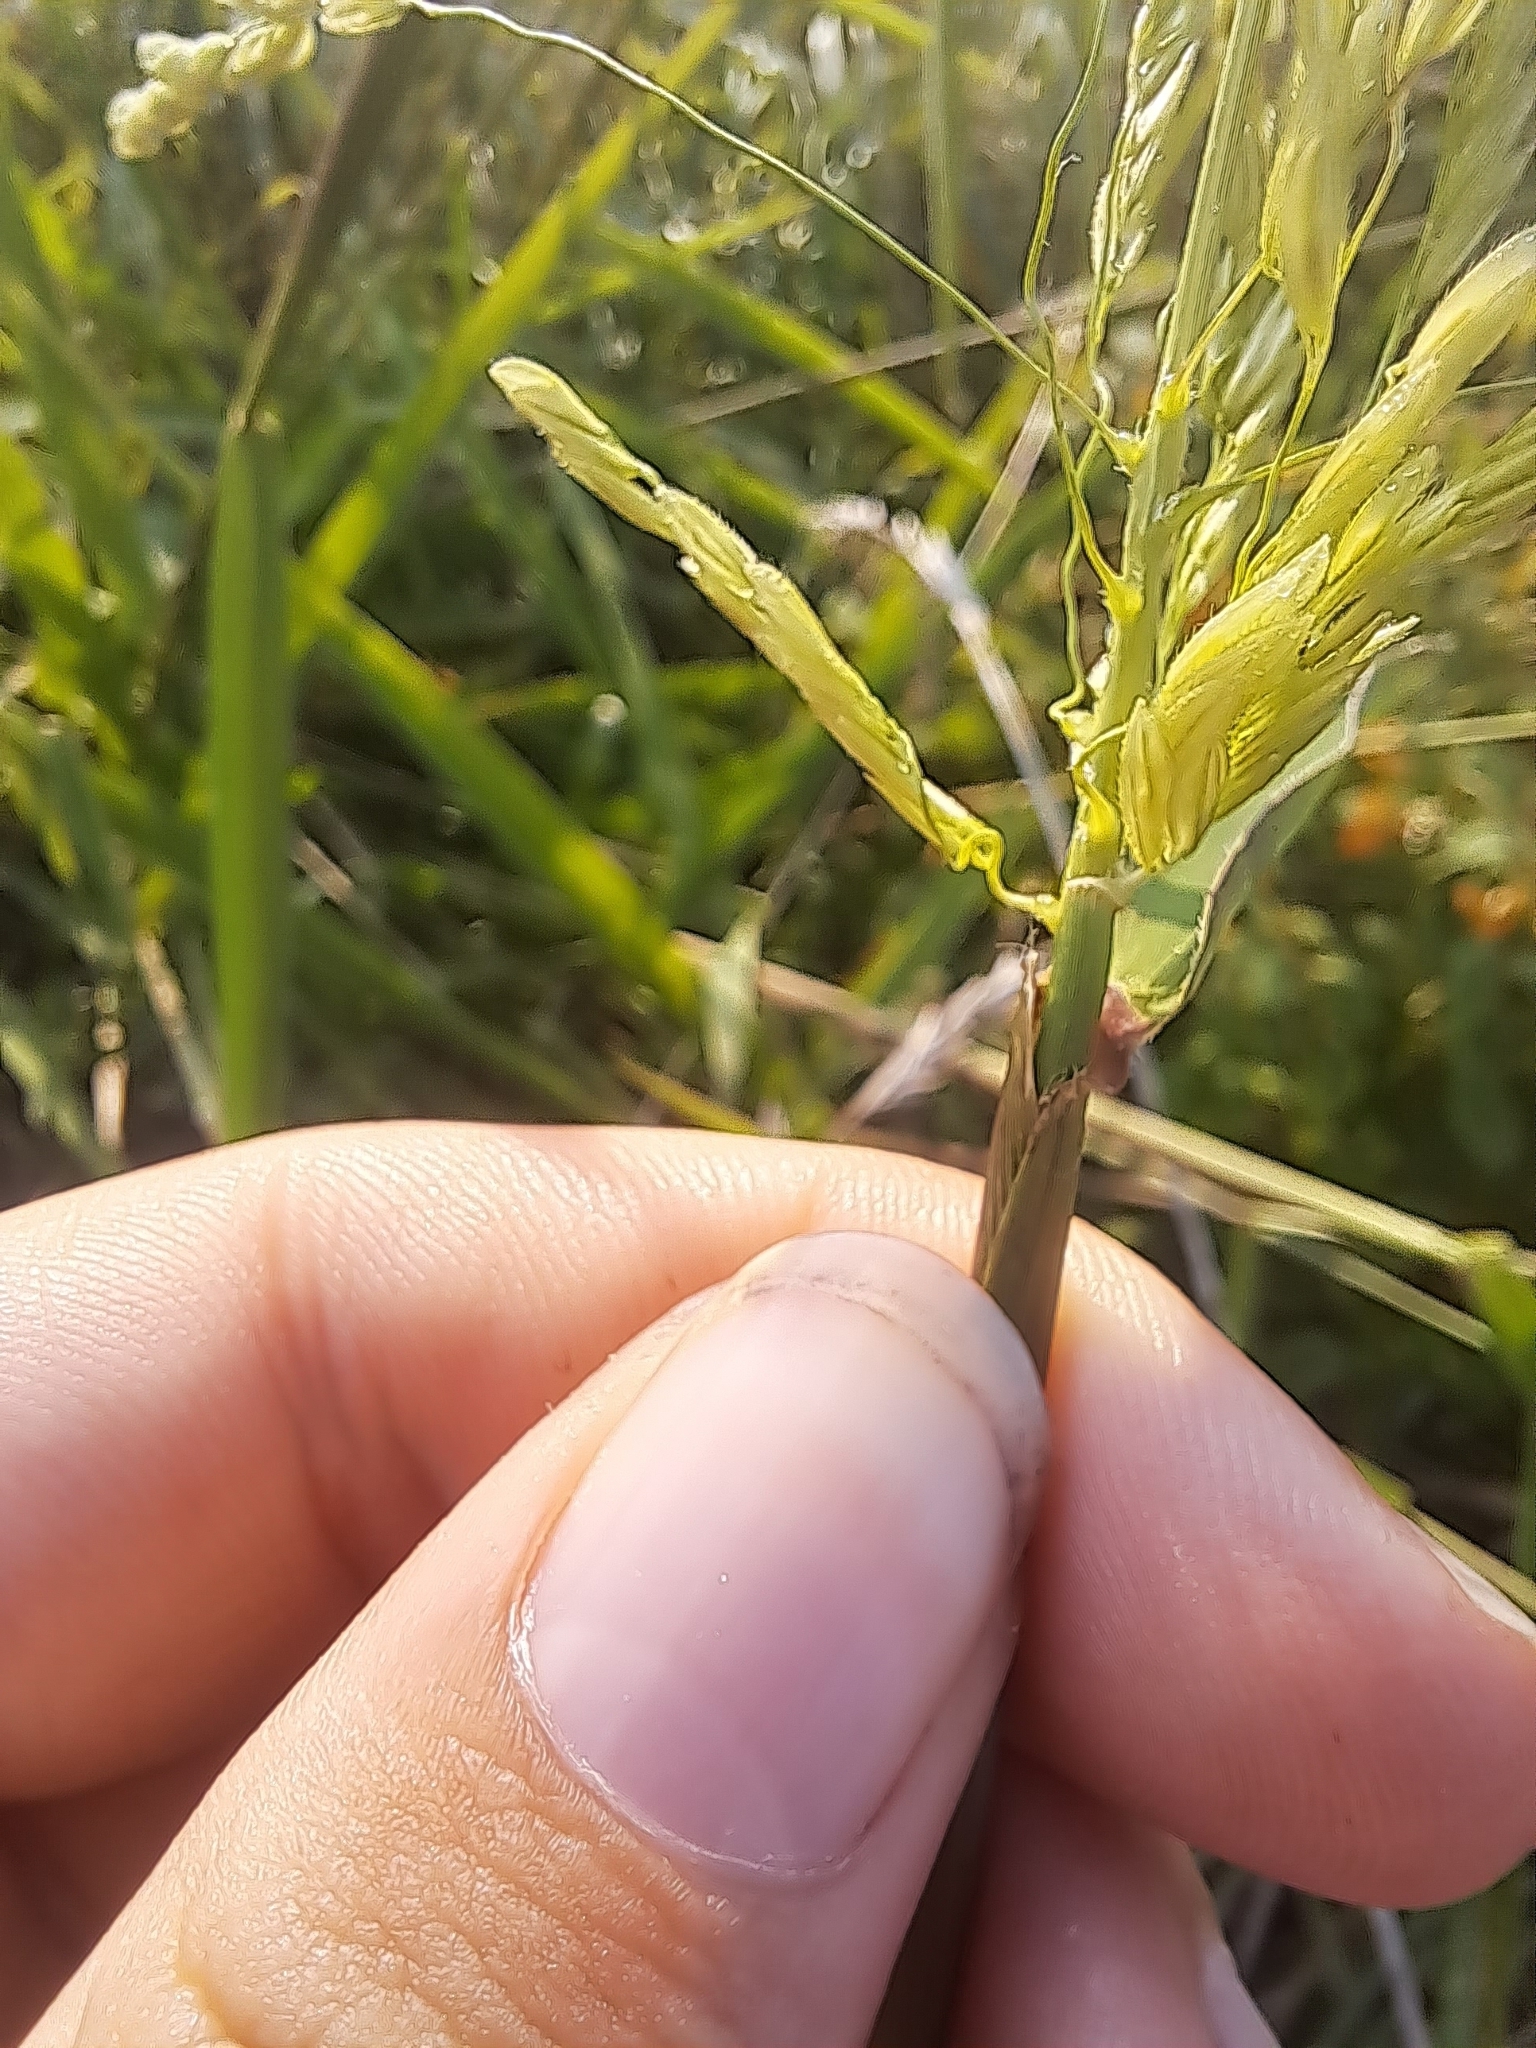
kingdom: Plantae
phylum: Tracheophyta
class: Liliopsida
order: Poales
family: Poaceae
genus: Leersia
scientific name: Leersia oryzoides
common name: Cut-grass
